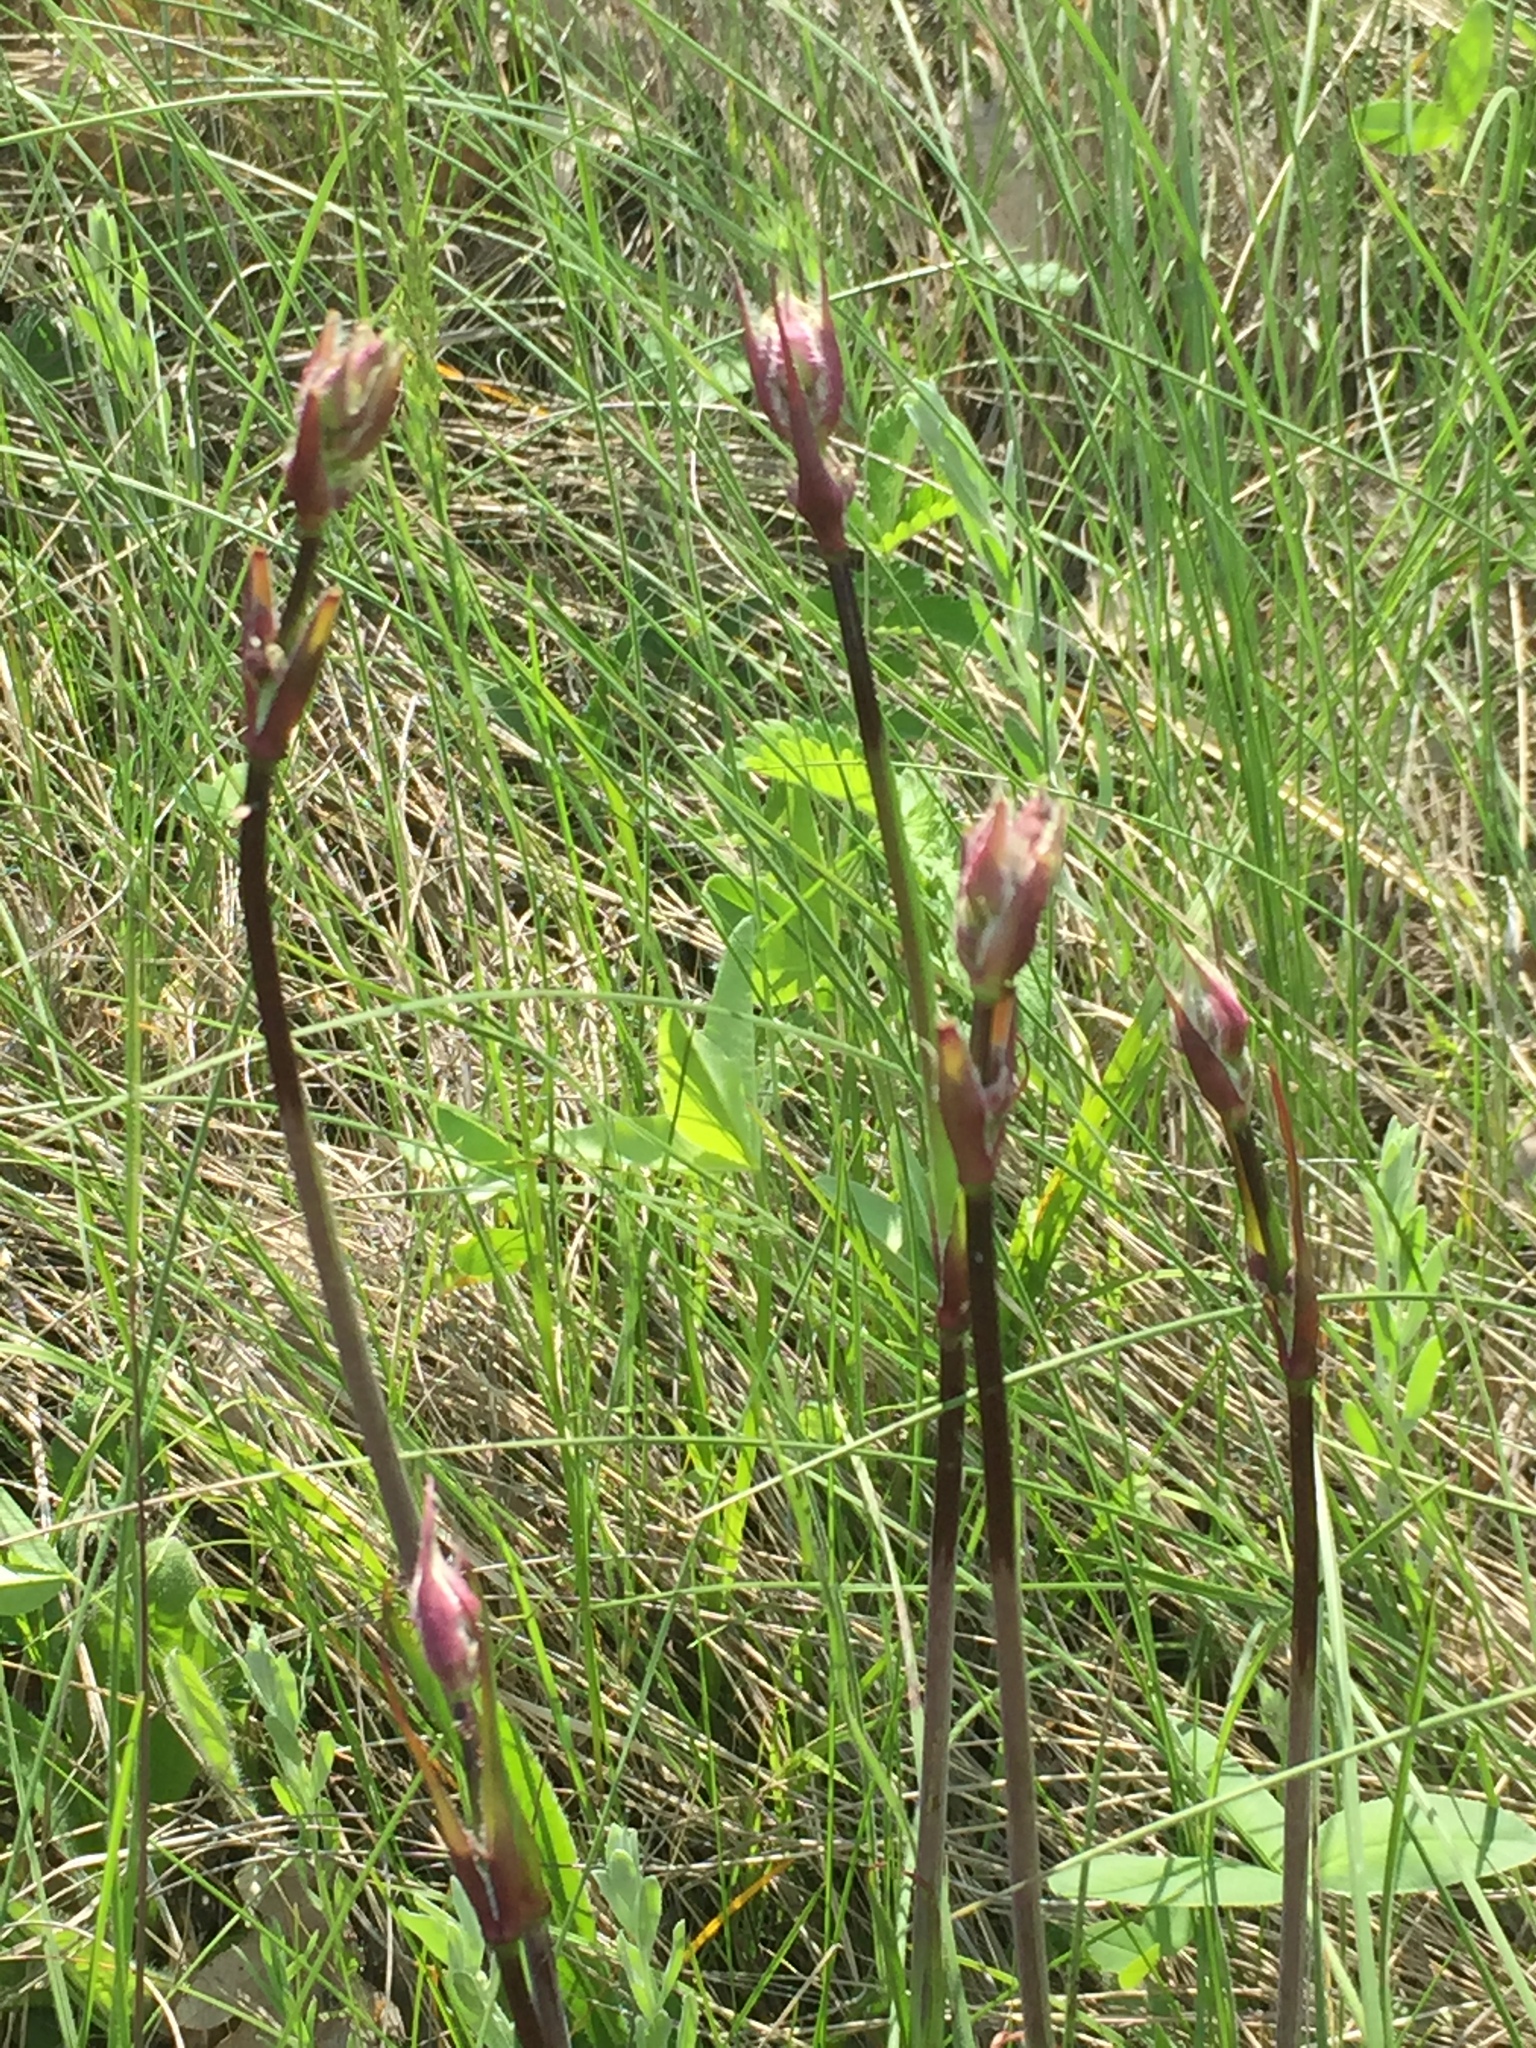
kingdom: Plantae
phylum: Tracheophyta
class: Magnoliopsida
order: Caryophyllales
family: Caryophyllaceae
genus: Viscaria
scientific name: Viscaria vulgaris
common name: Clammy campion
